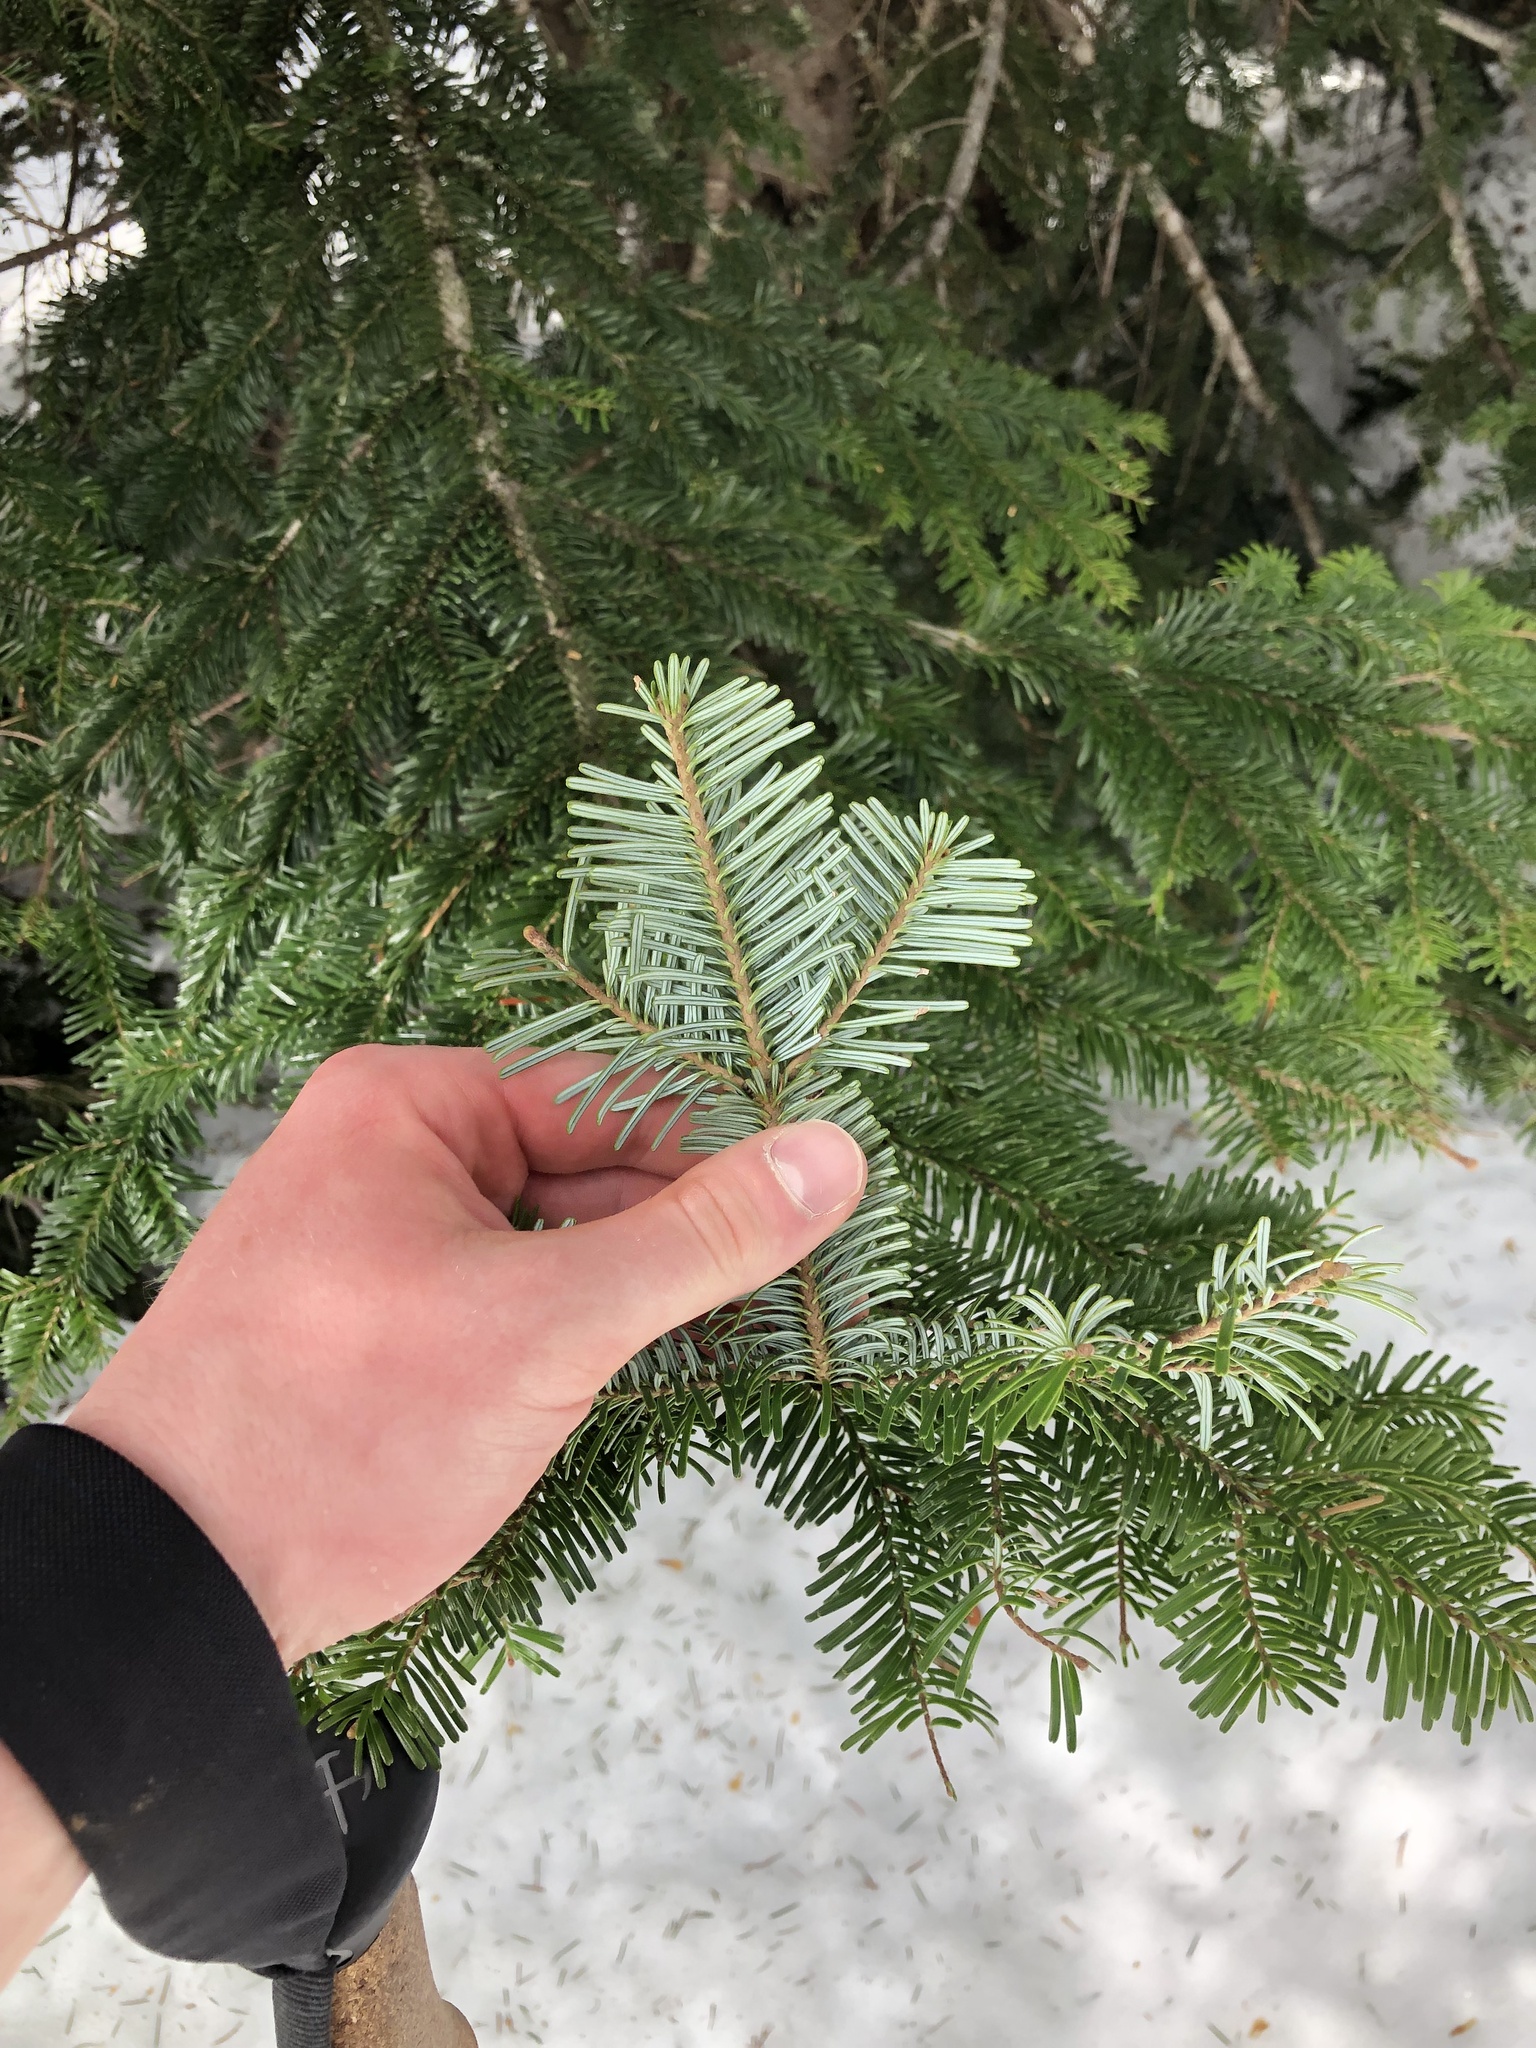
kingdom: Plantae
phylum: Tracheophyta
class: Pinopsida
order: Pinales
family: Pinaceae
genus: Abies
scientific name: Abies amabilis
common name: Pacific silver fir
